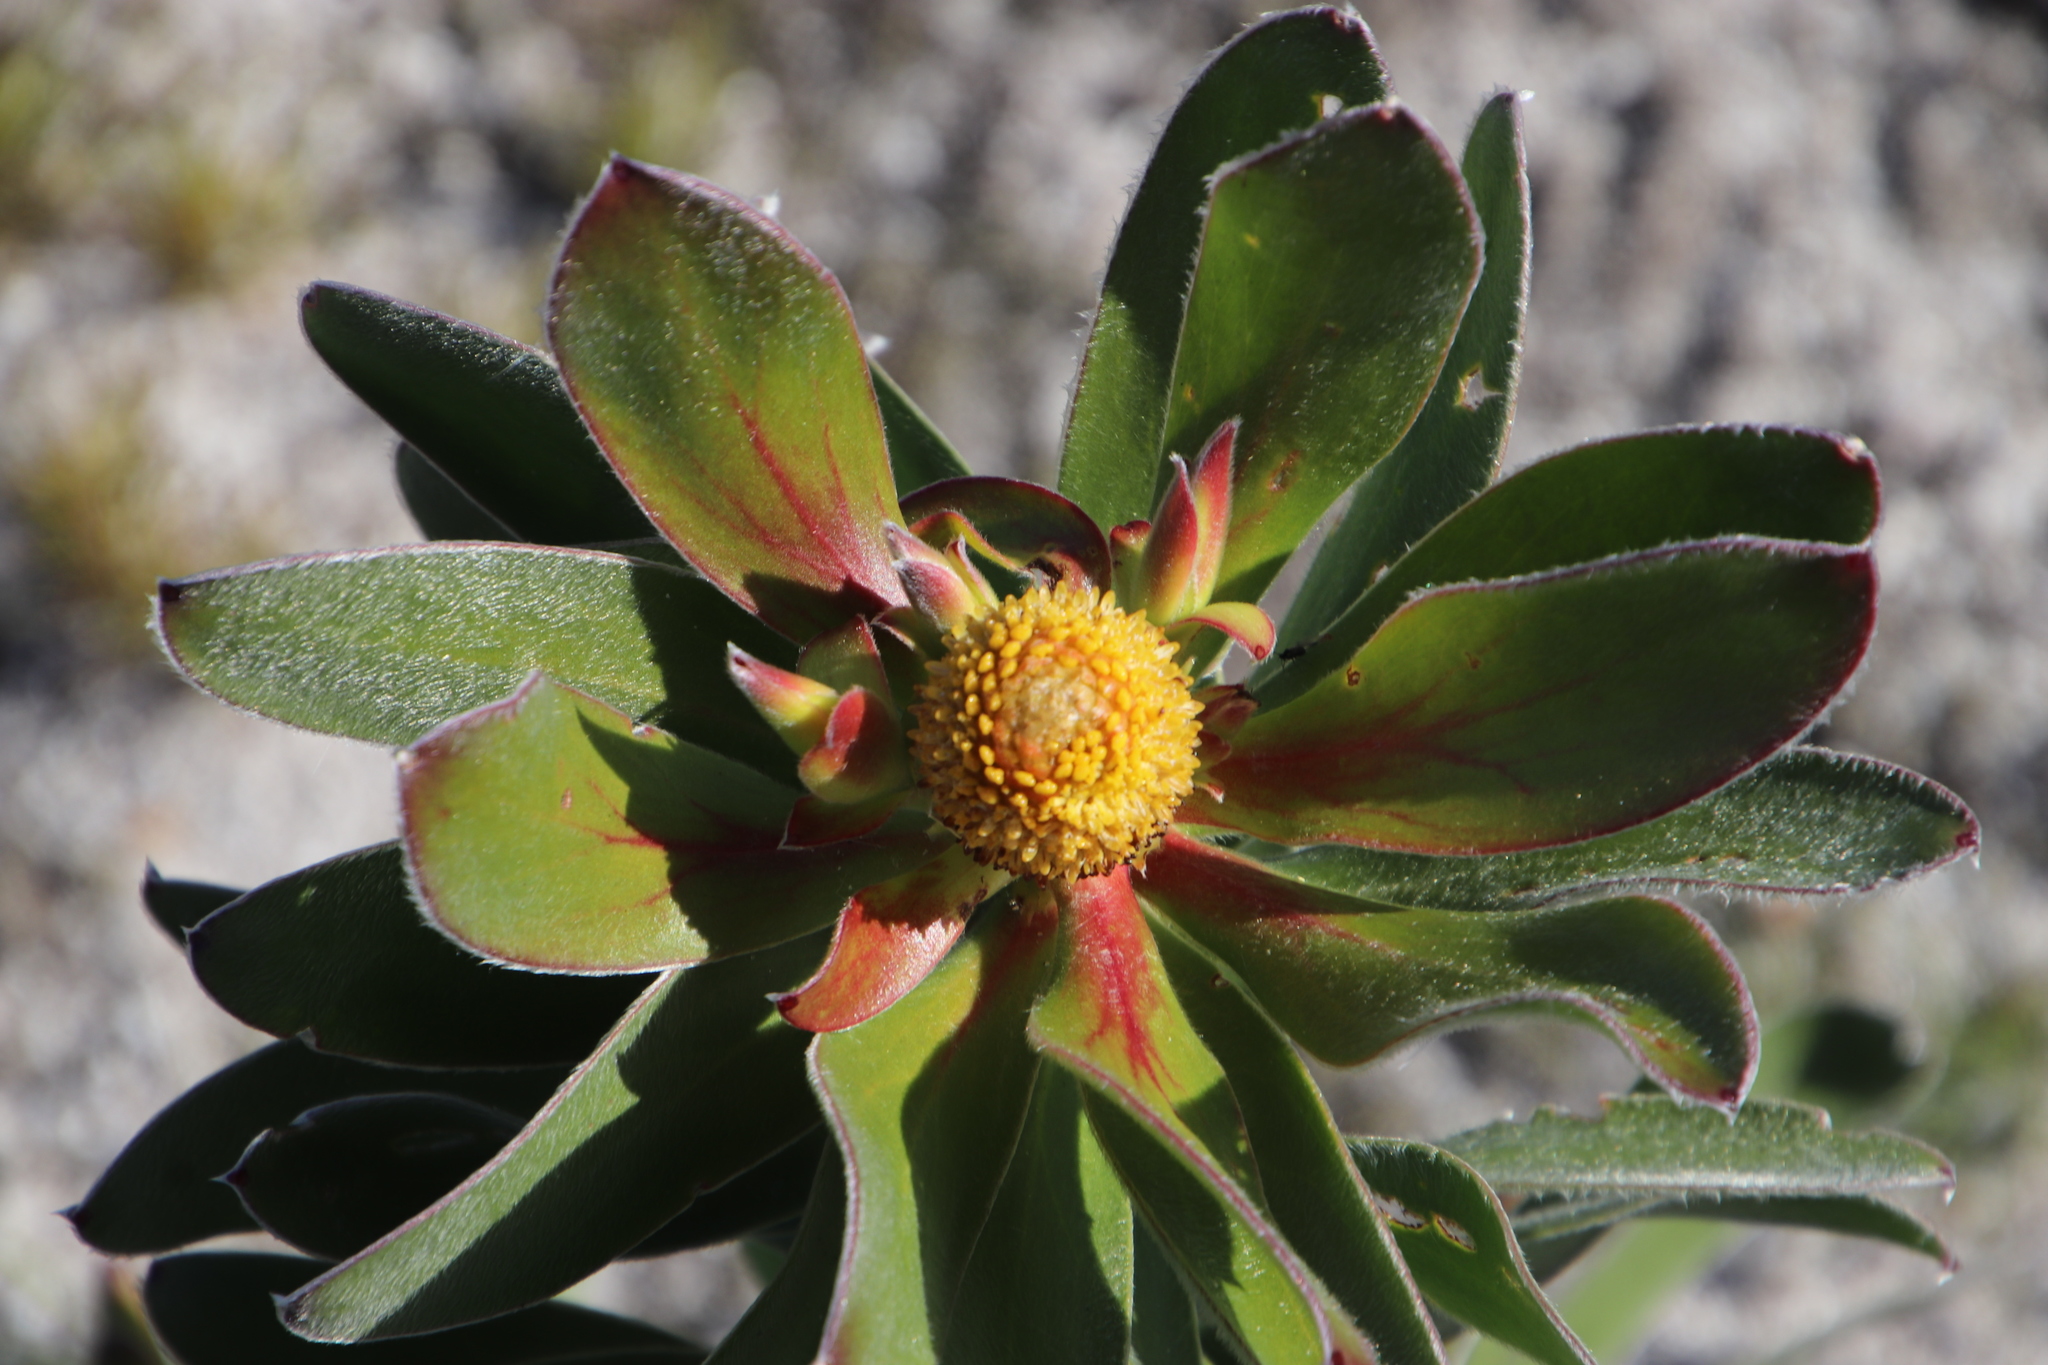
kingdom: Plantae
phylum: Tracheophyta
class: Magnoliopsida
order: Proteales
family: Proteaceae
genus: Leucadendron
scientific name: Leucadendron laureolum
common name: Golden sunshinebush
